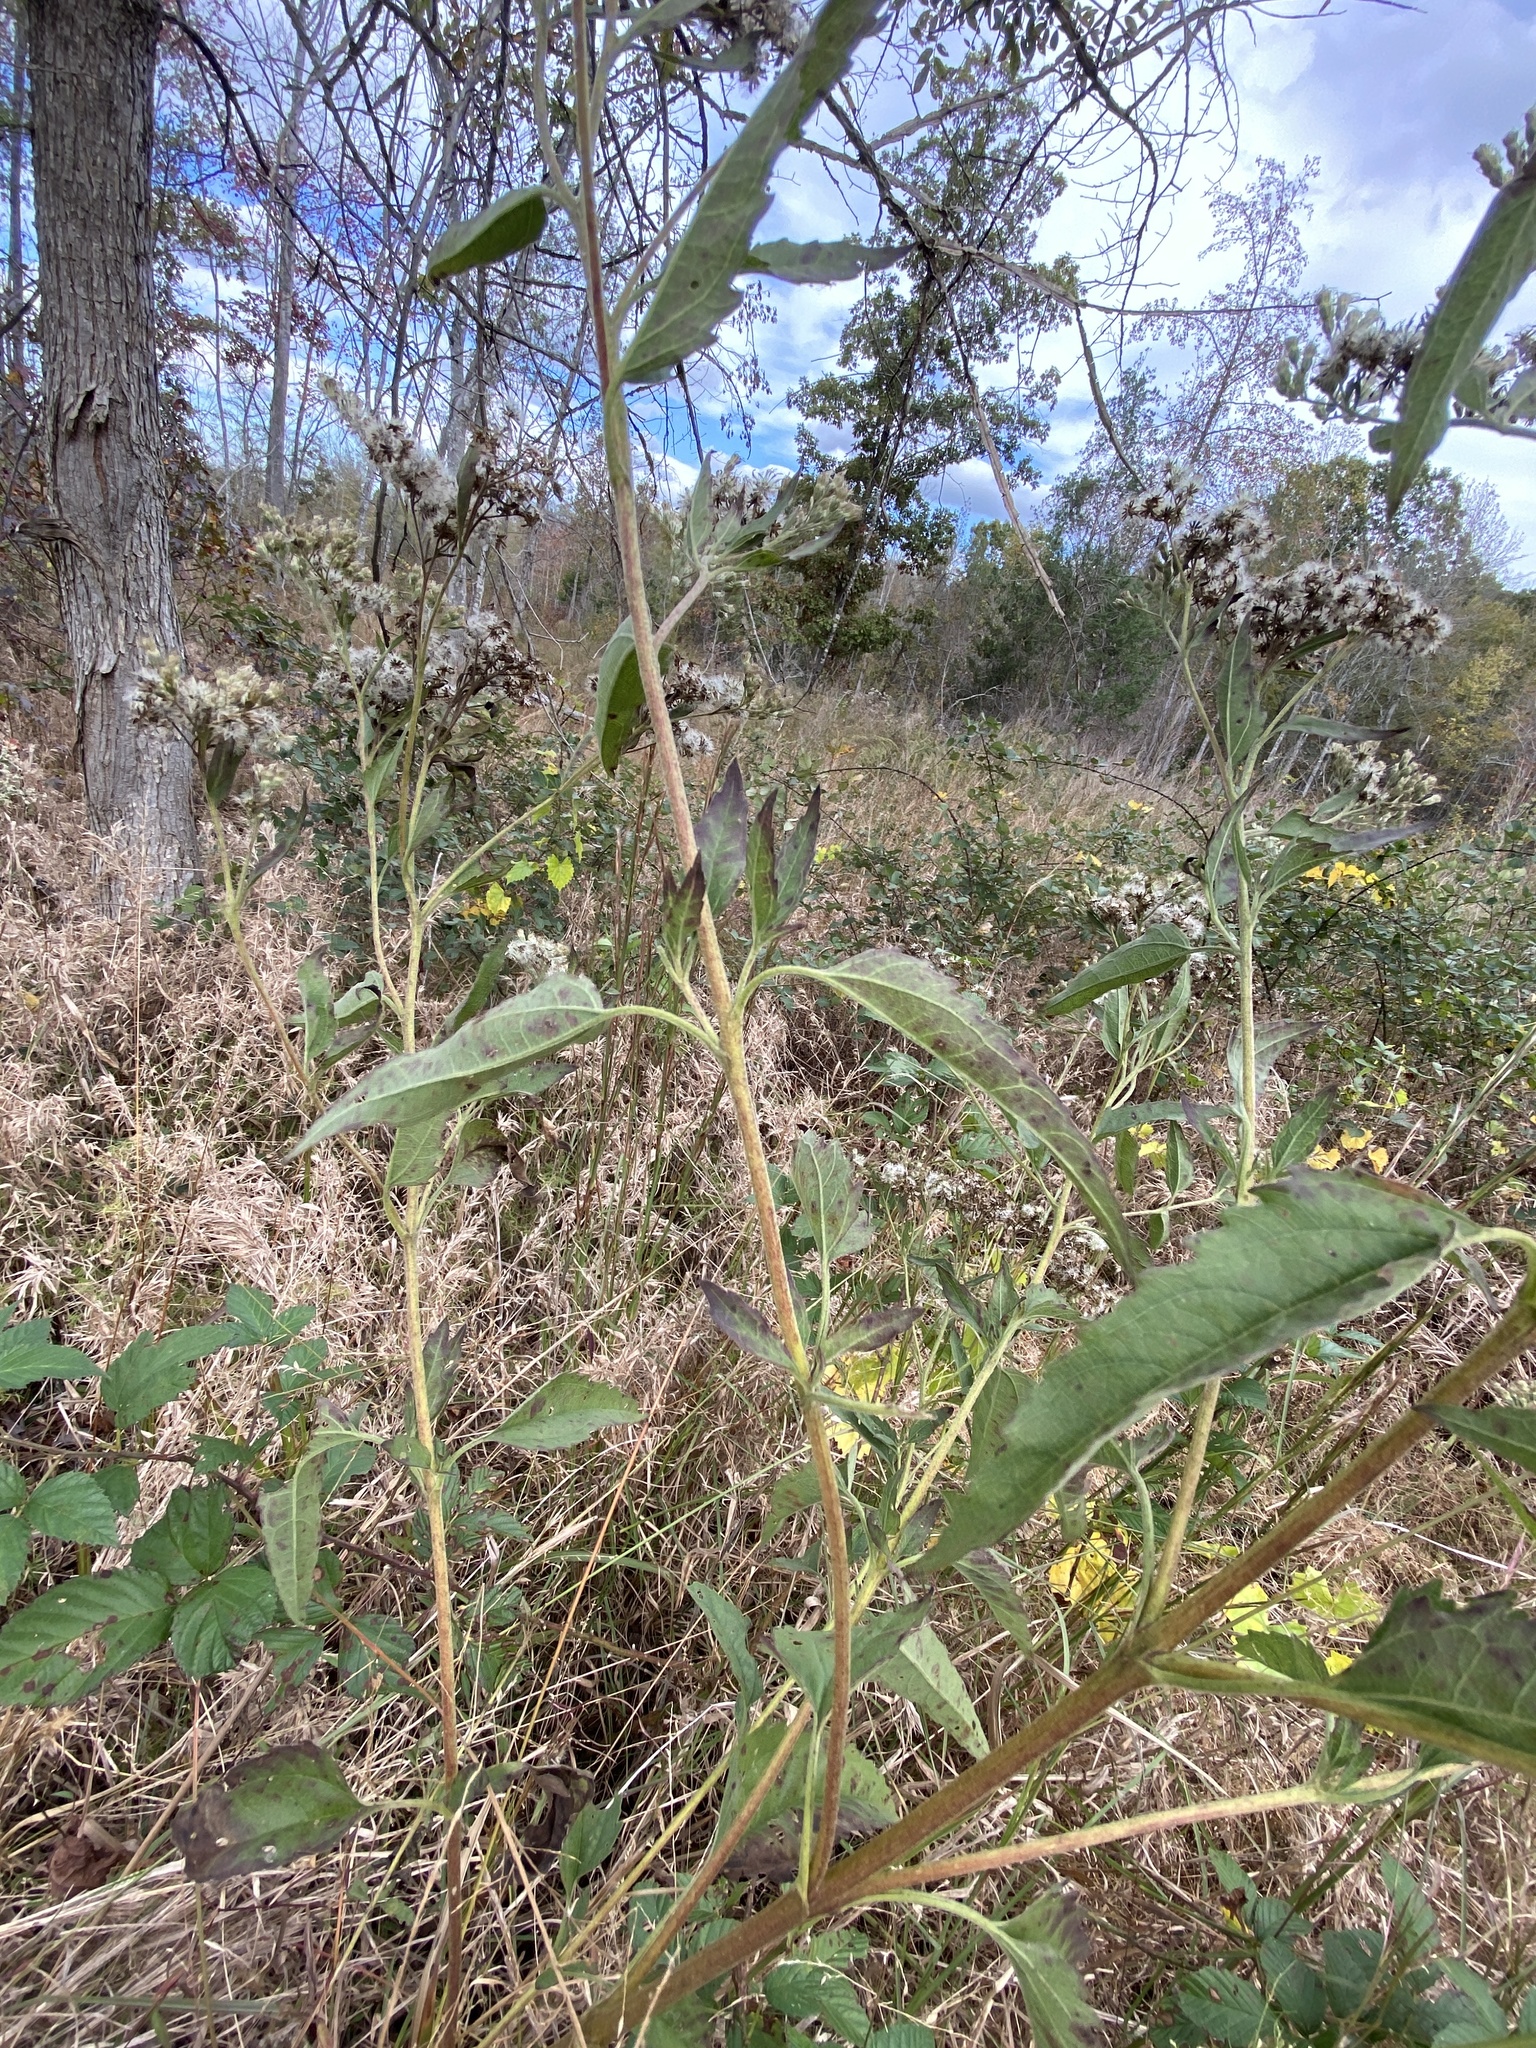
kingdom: Plantae
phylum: Tracheophyta
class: Magnoliopsida
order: Asterales
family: Asteraceae
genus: Eupatorium
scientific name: Eupatorium serotinum
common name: Late boneset
